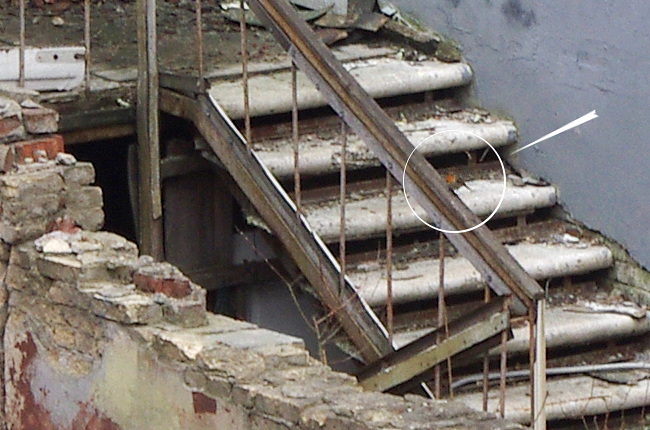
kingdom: Animalia
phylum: Chordata
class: Aves
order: Passeriformes
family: Muscicapidae
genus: Erithacus
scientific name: Erithacus rubecula
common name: European robin
